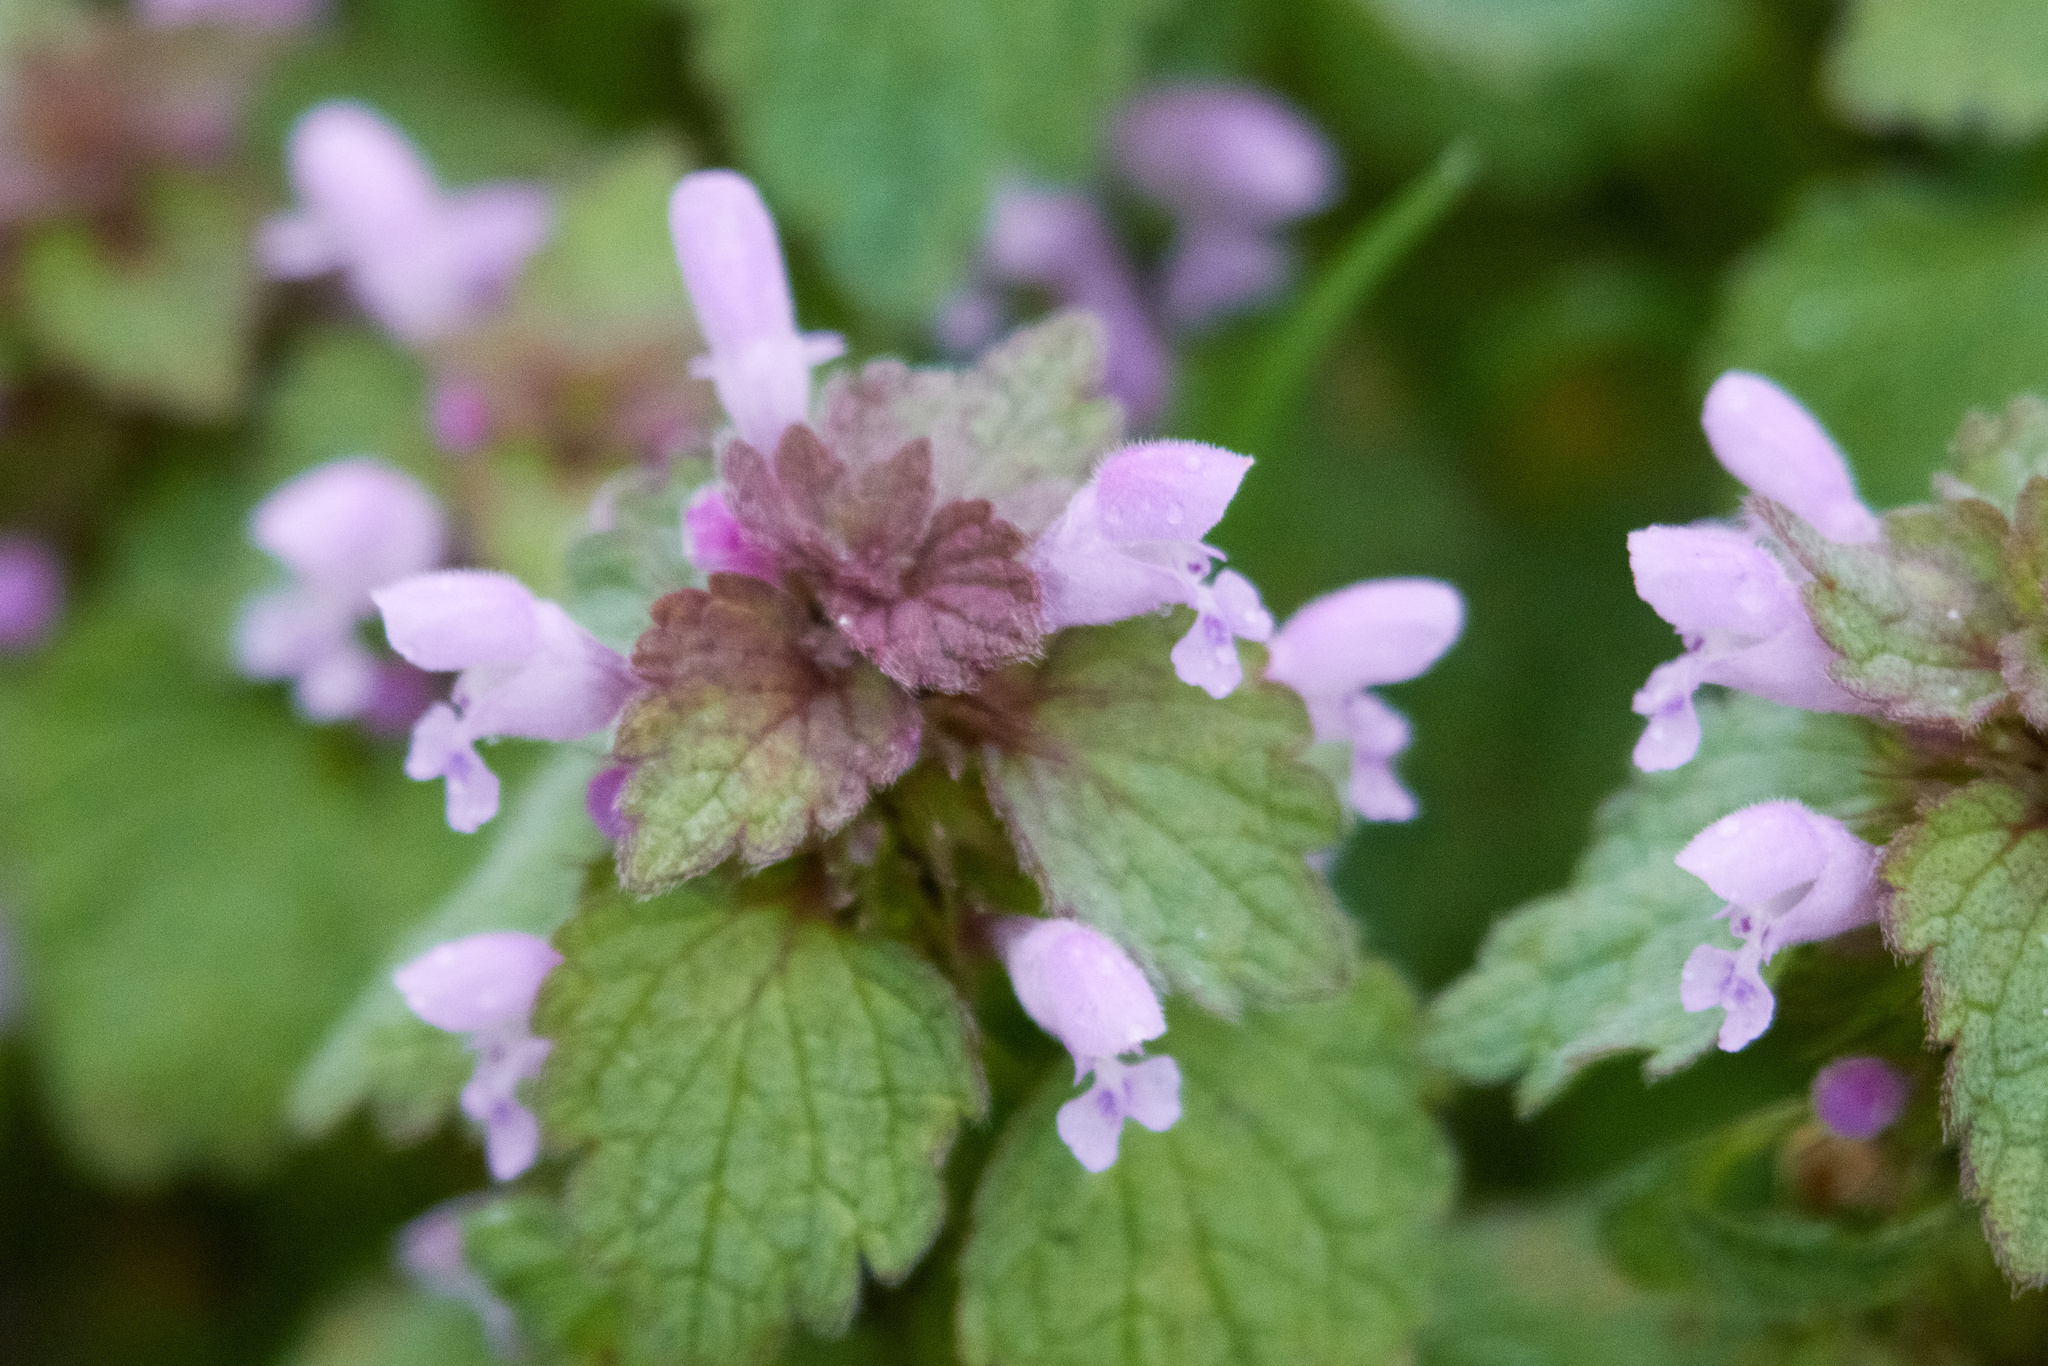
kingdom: Plantae
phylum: Tracheophyta
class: Magnoliopsida
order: Lamiales
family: Lamiaceae
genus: Lamium
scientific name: Lamium purpureum
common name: Red dead-nettle
